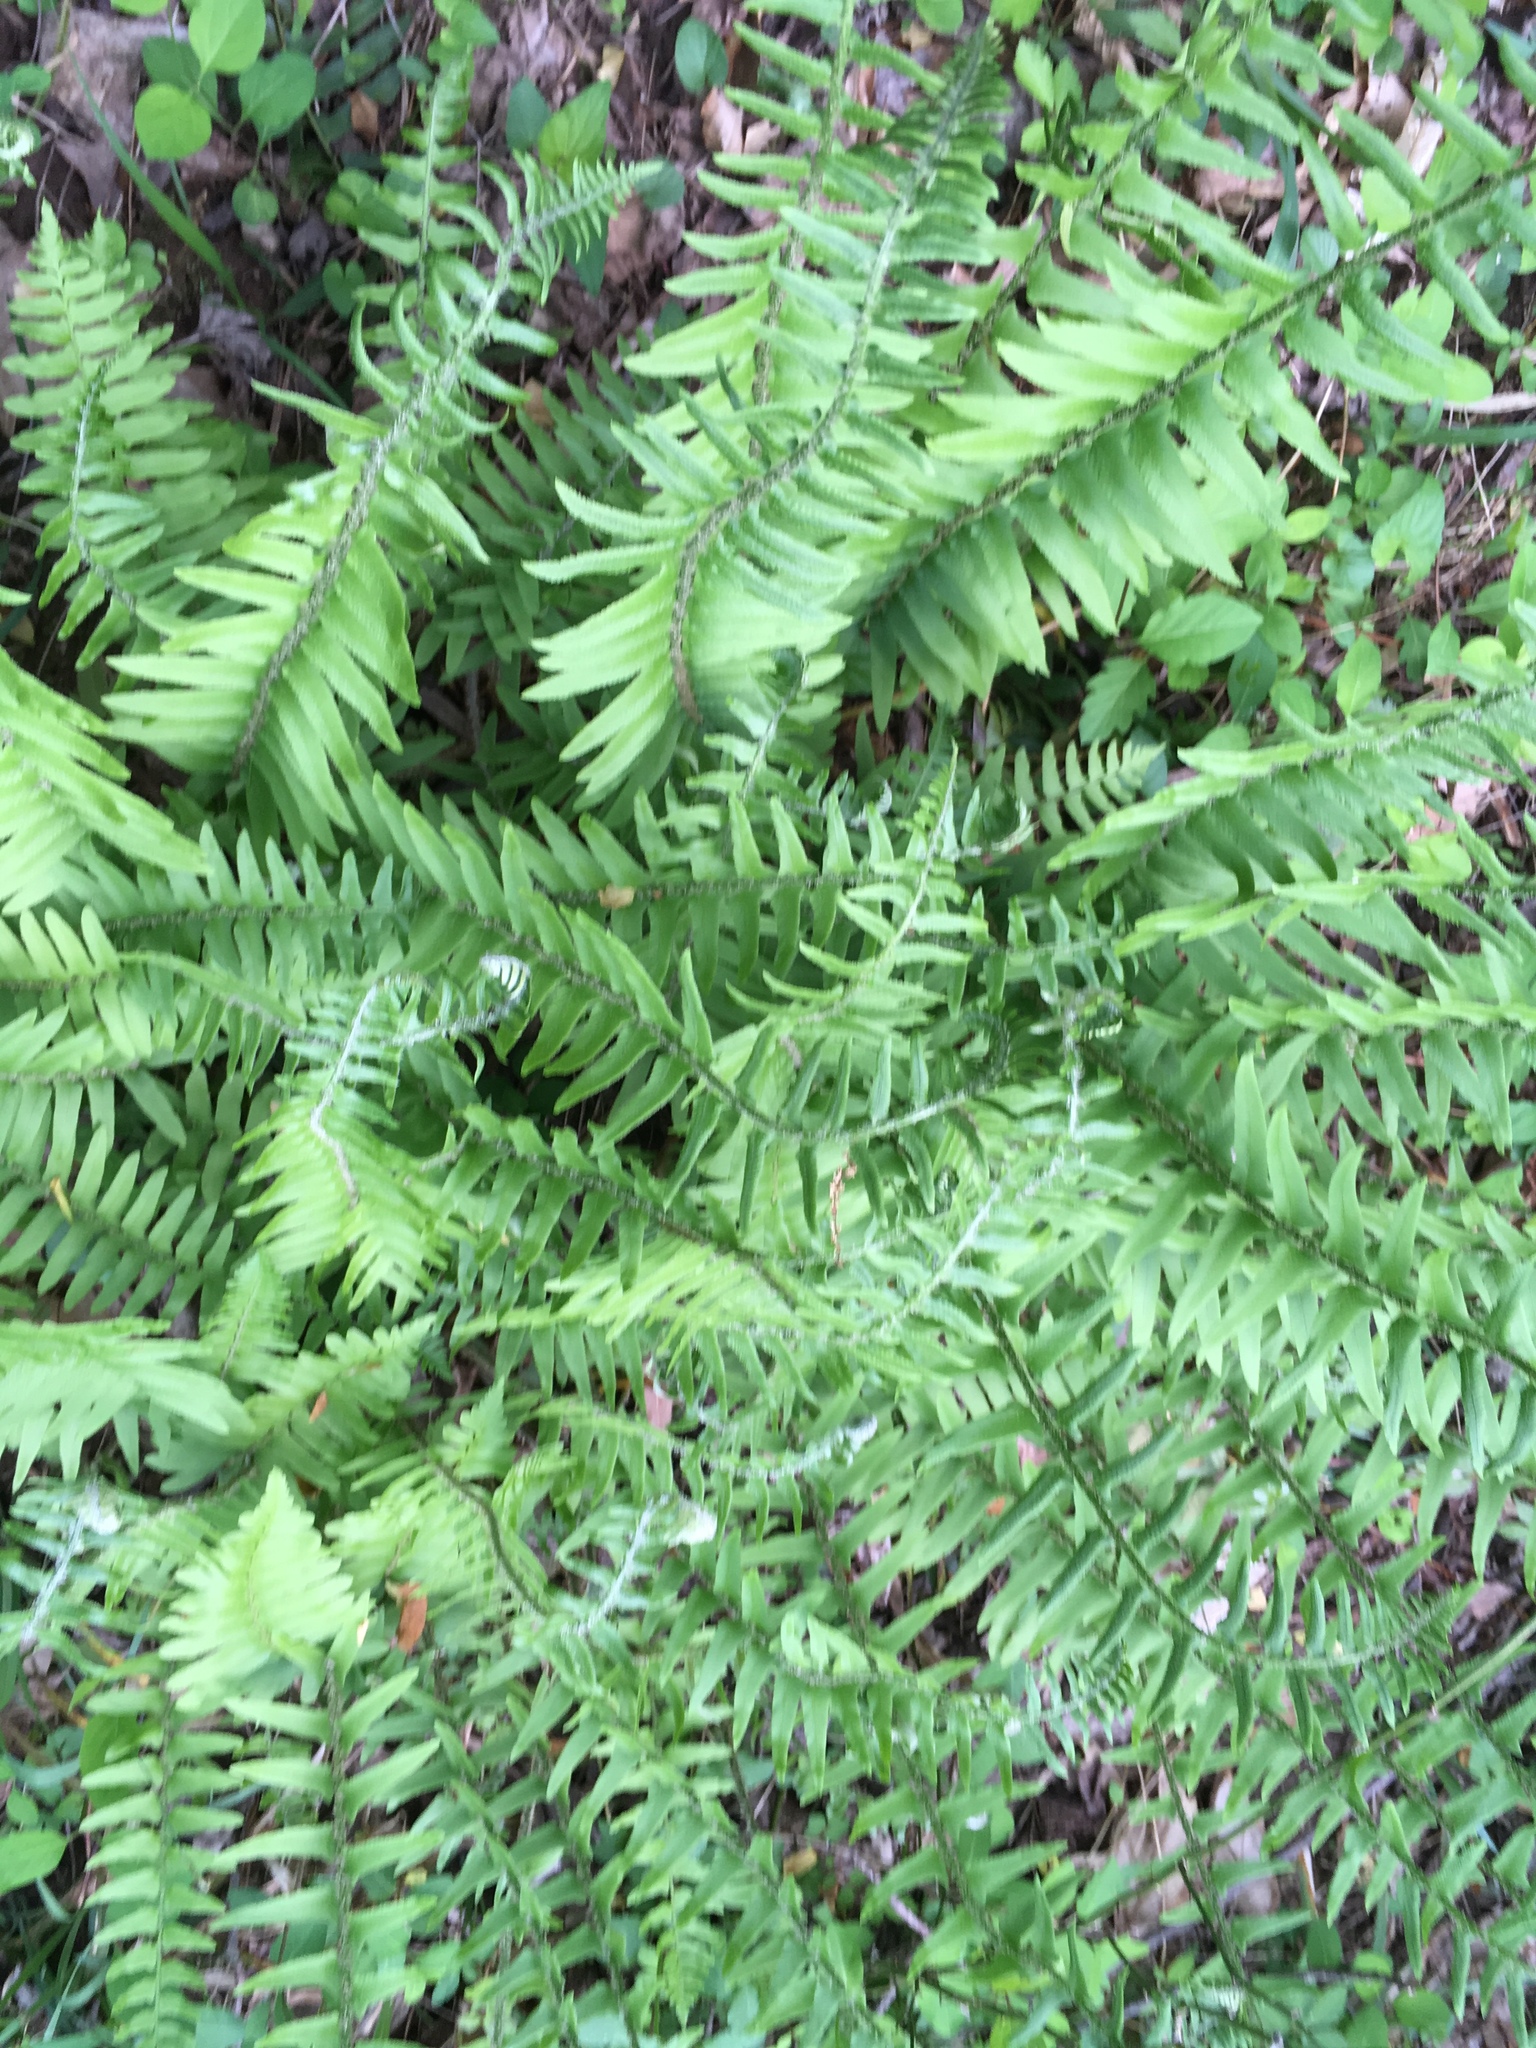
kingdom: Plantae
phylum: Tracheophyta
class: Polypodiopsida
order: Polypodiales
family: Dryopteridaceae
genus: Polystichum
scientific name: Polystichum acrostichoides
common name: Christmas fern
